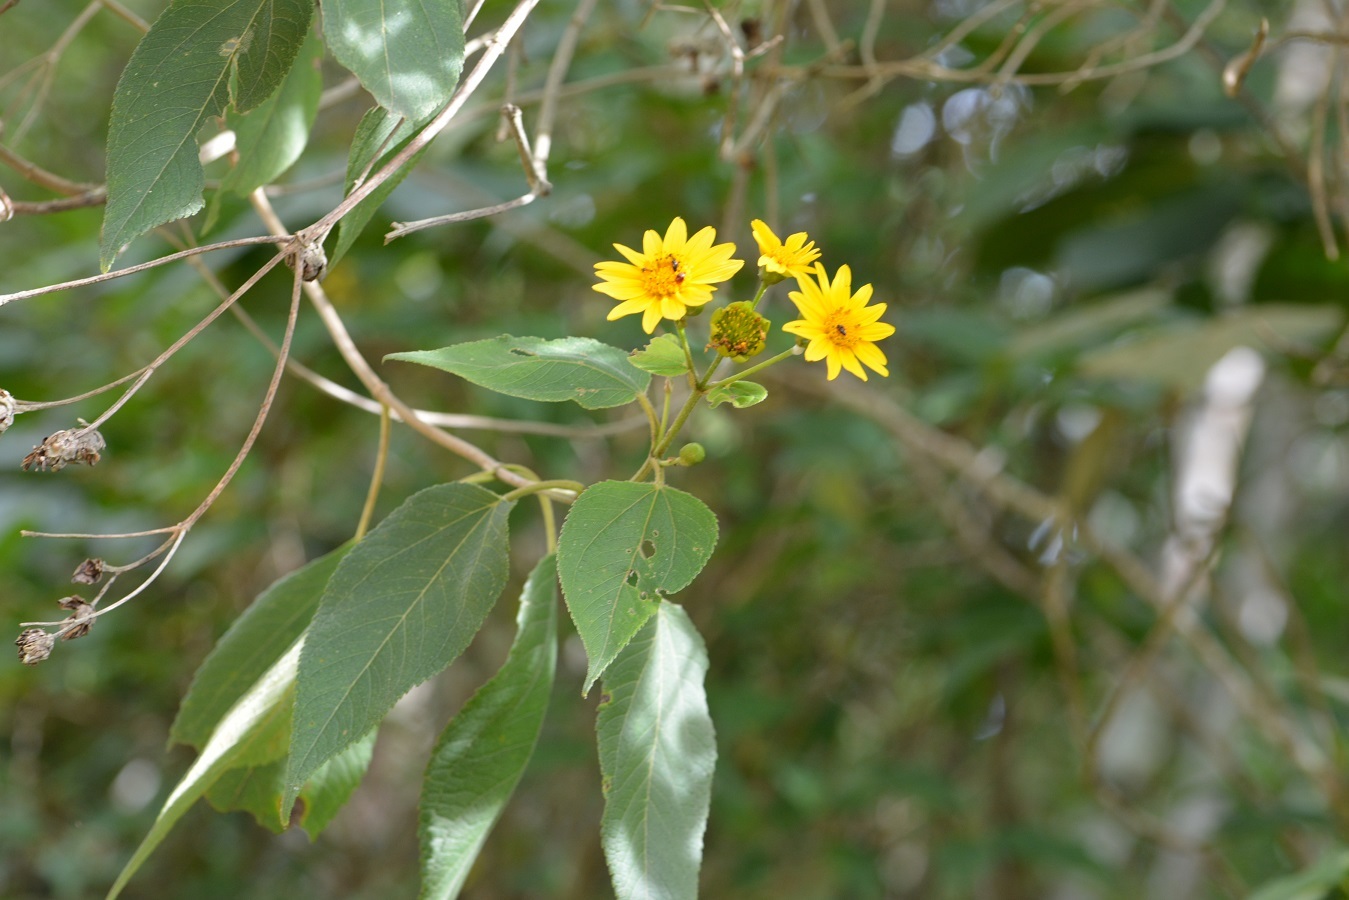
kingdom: Plantae
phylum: Tracheophyta
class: Magnoliopsida
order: Asterales
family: Asteraceae
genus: Lasianthaea
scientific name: Lasianthaea fruticosa
